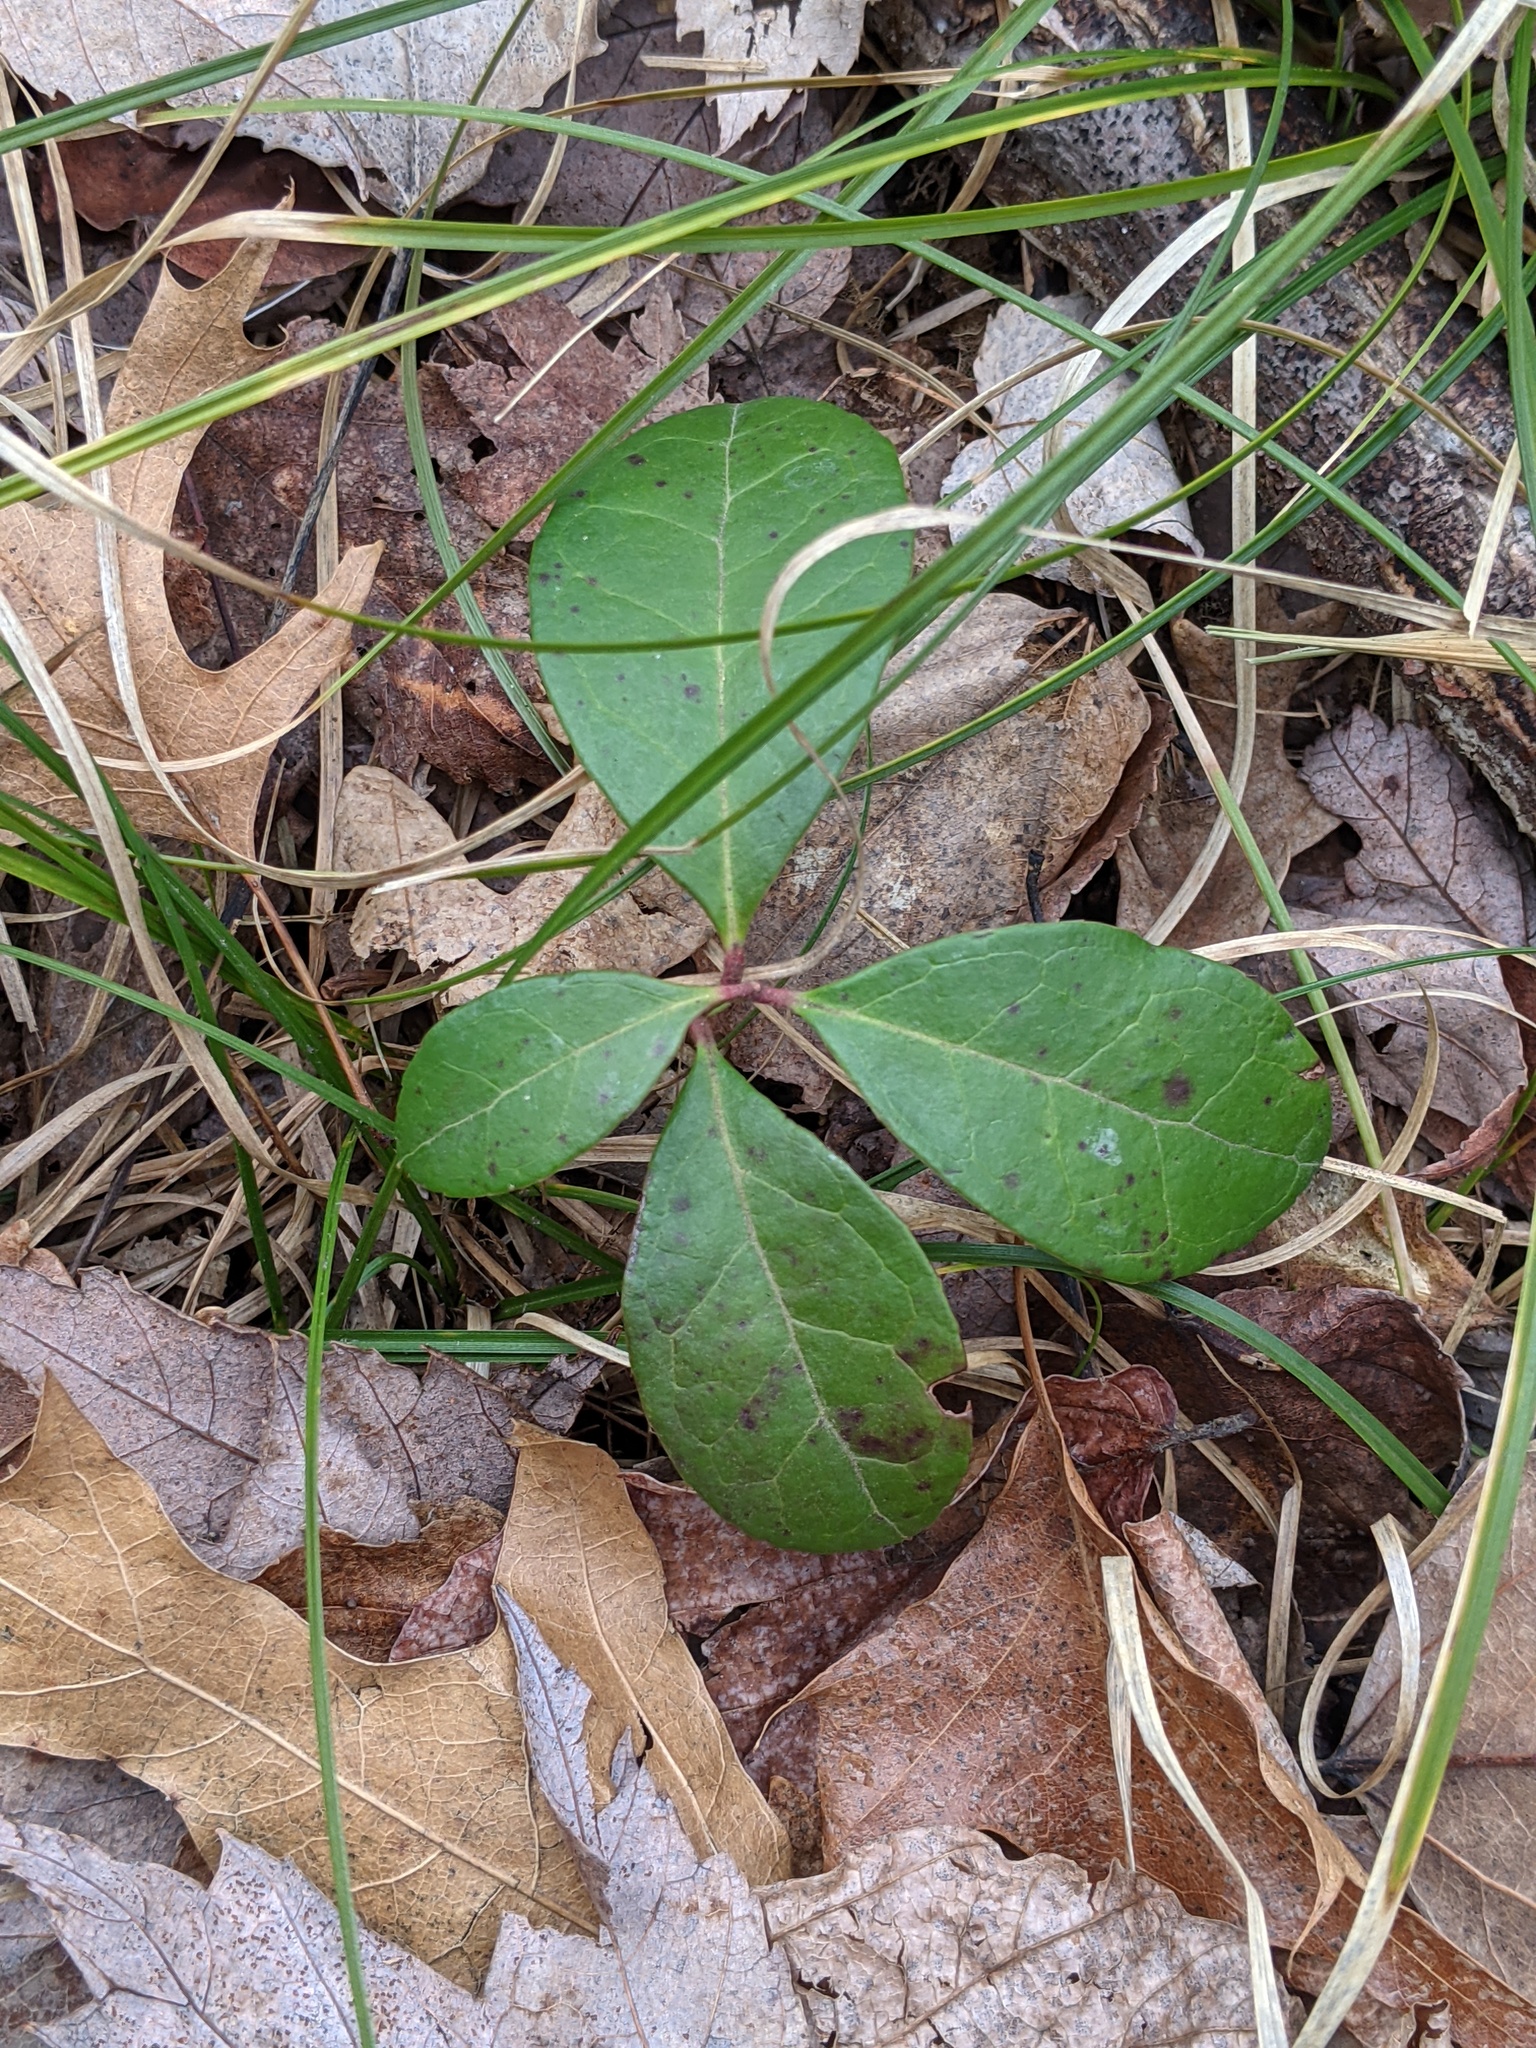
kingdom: Plantae
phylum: Tracheophyta
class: Magnoliopsida
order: Ericales
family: Ericaceae
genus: Gaultheria
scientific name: Gaultheria procumbens
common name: Checkerberry
